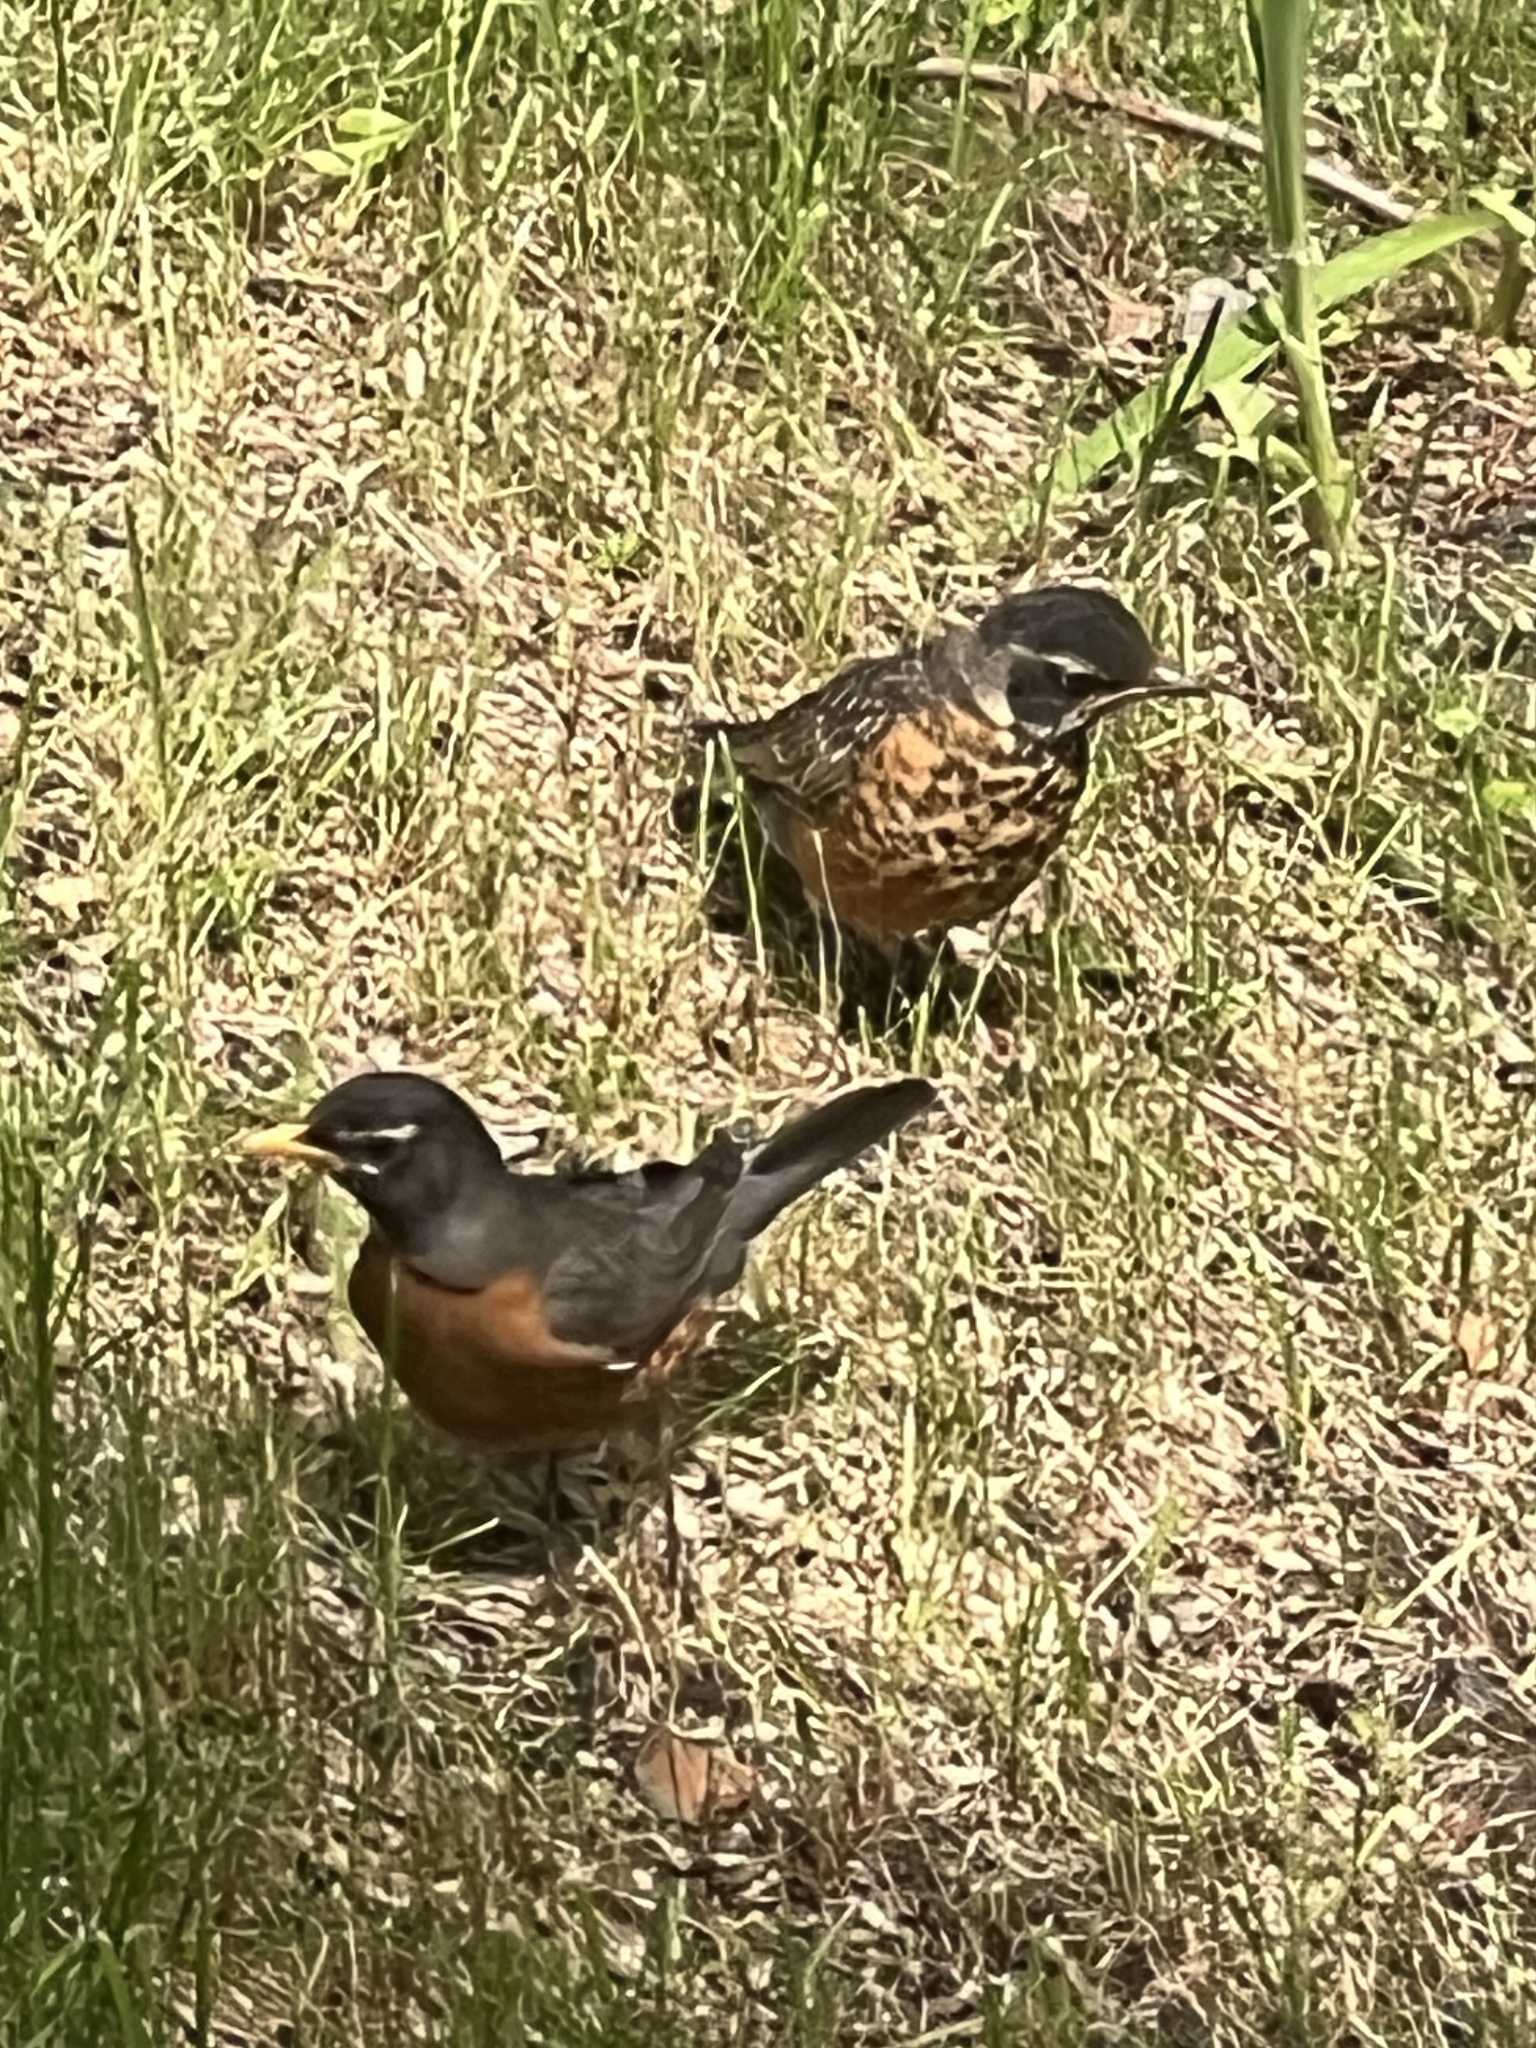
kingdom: Animalia
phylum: Chordata
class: Aves
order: Passeriformes
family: Turdidae
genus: Turdus
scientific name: Turdus migratorius
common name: American robin
